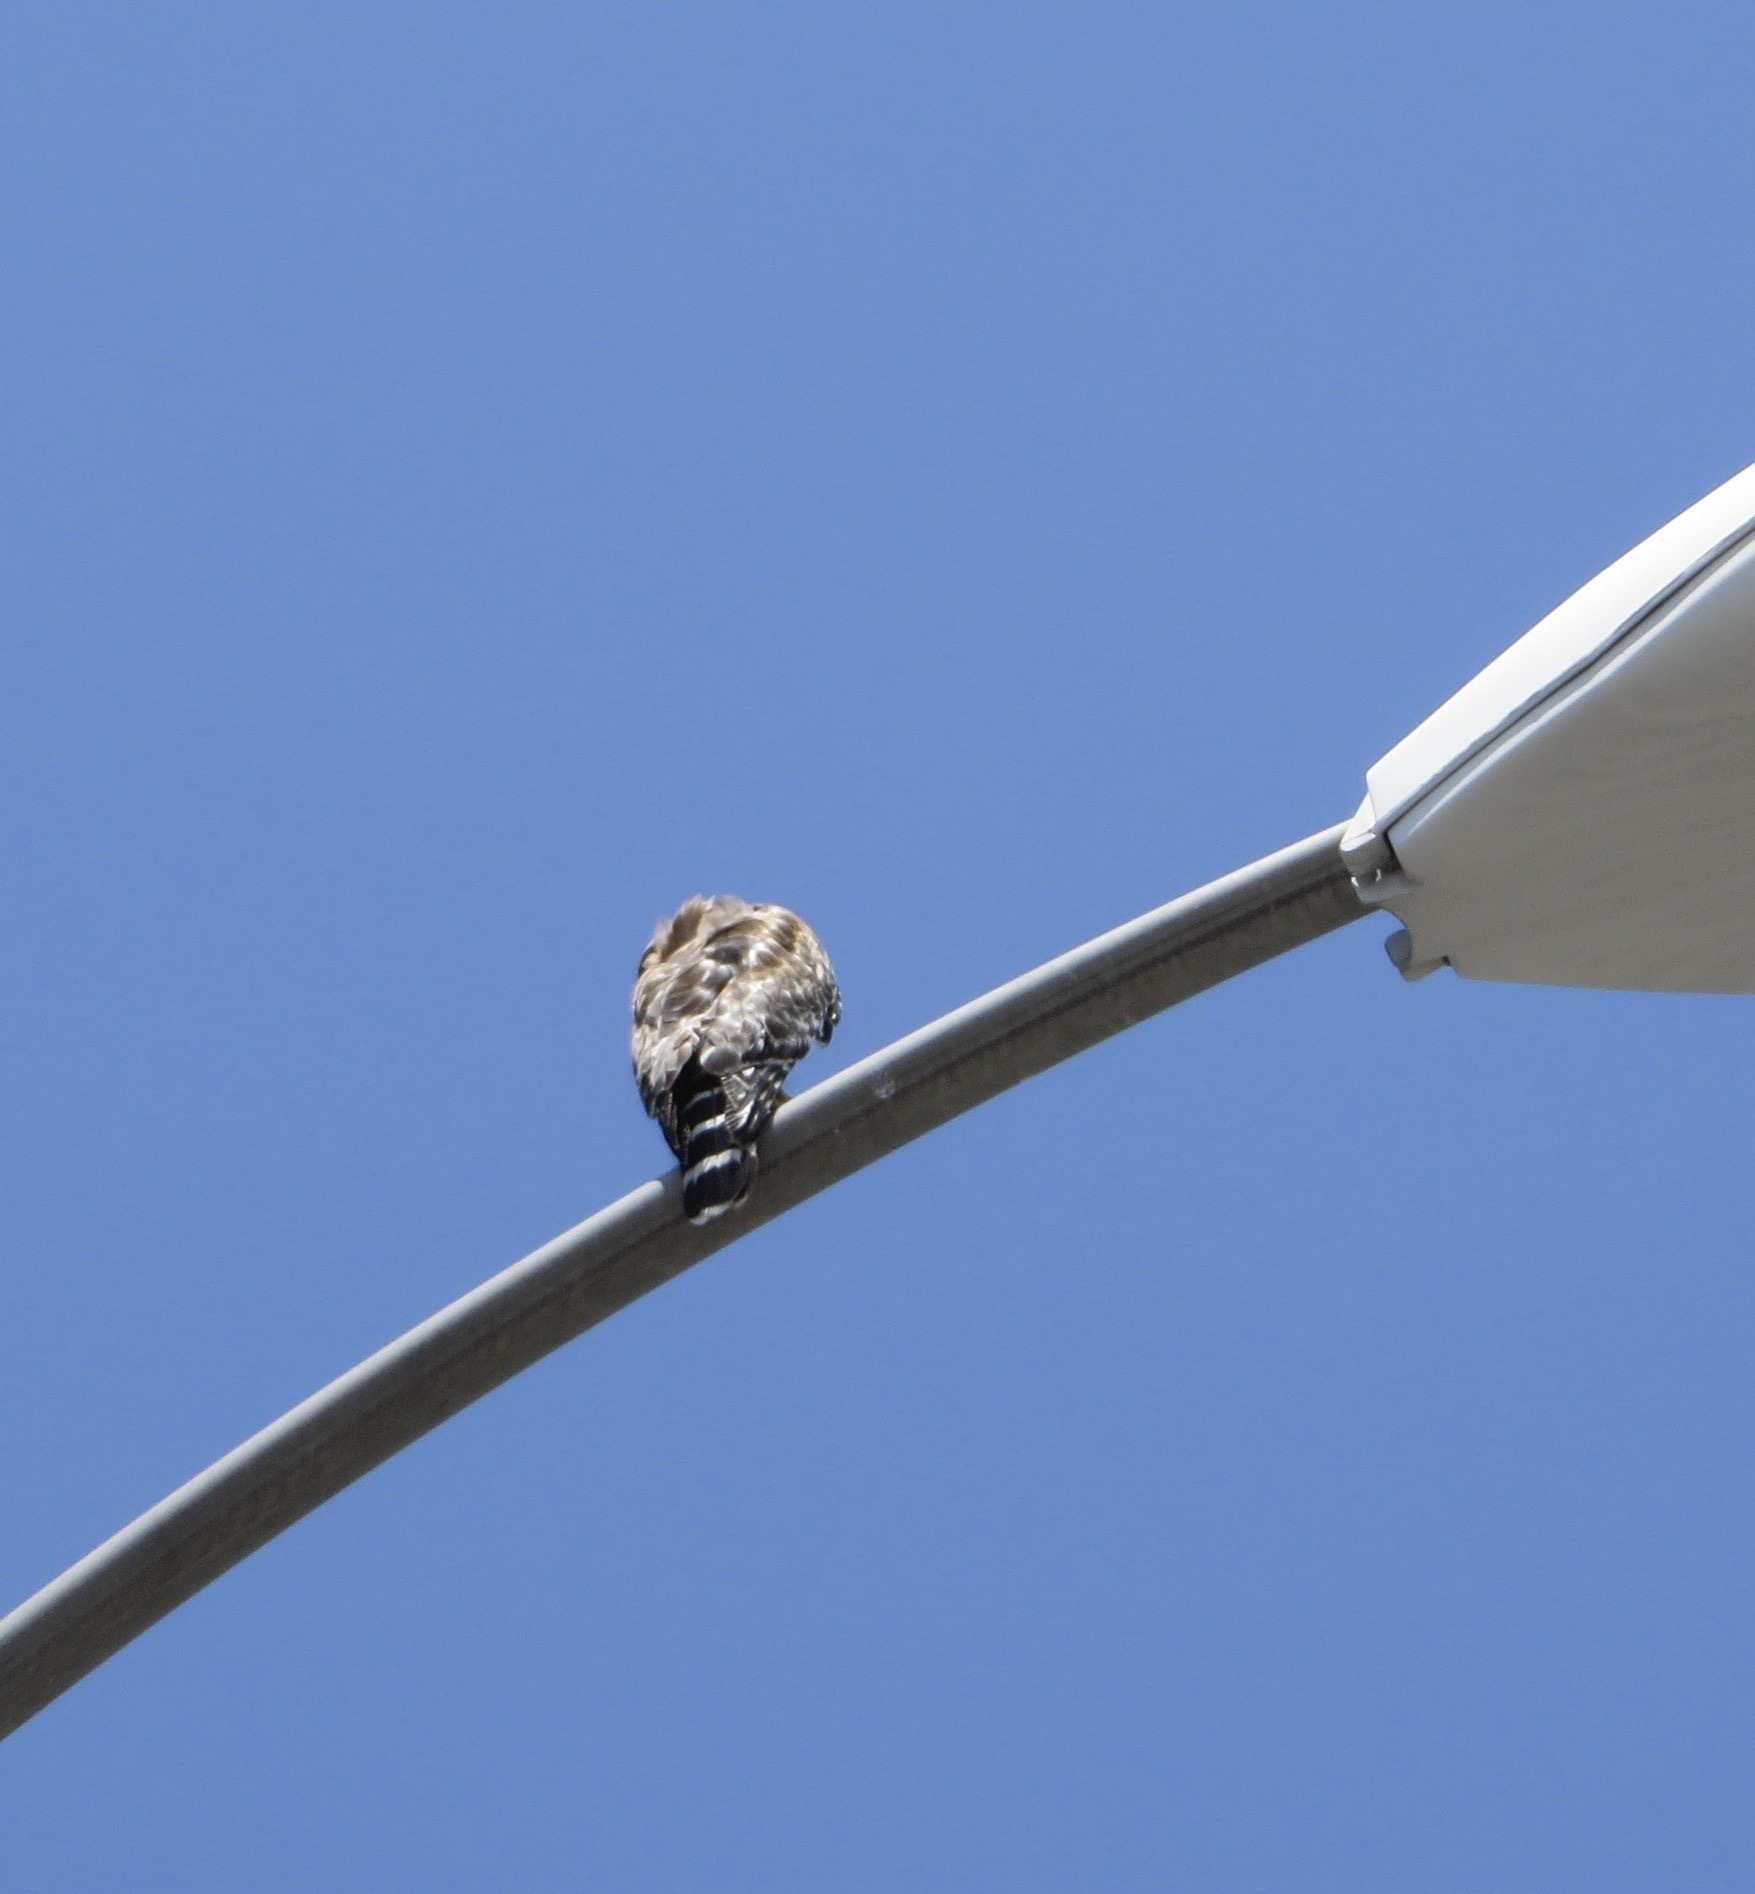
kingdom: Animalia
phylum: Chordata
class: Aves
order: Accipitriformes
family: Accipitridae
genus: Buteo
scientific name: Buteo lineatus
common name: Red-shouldered hawk
